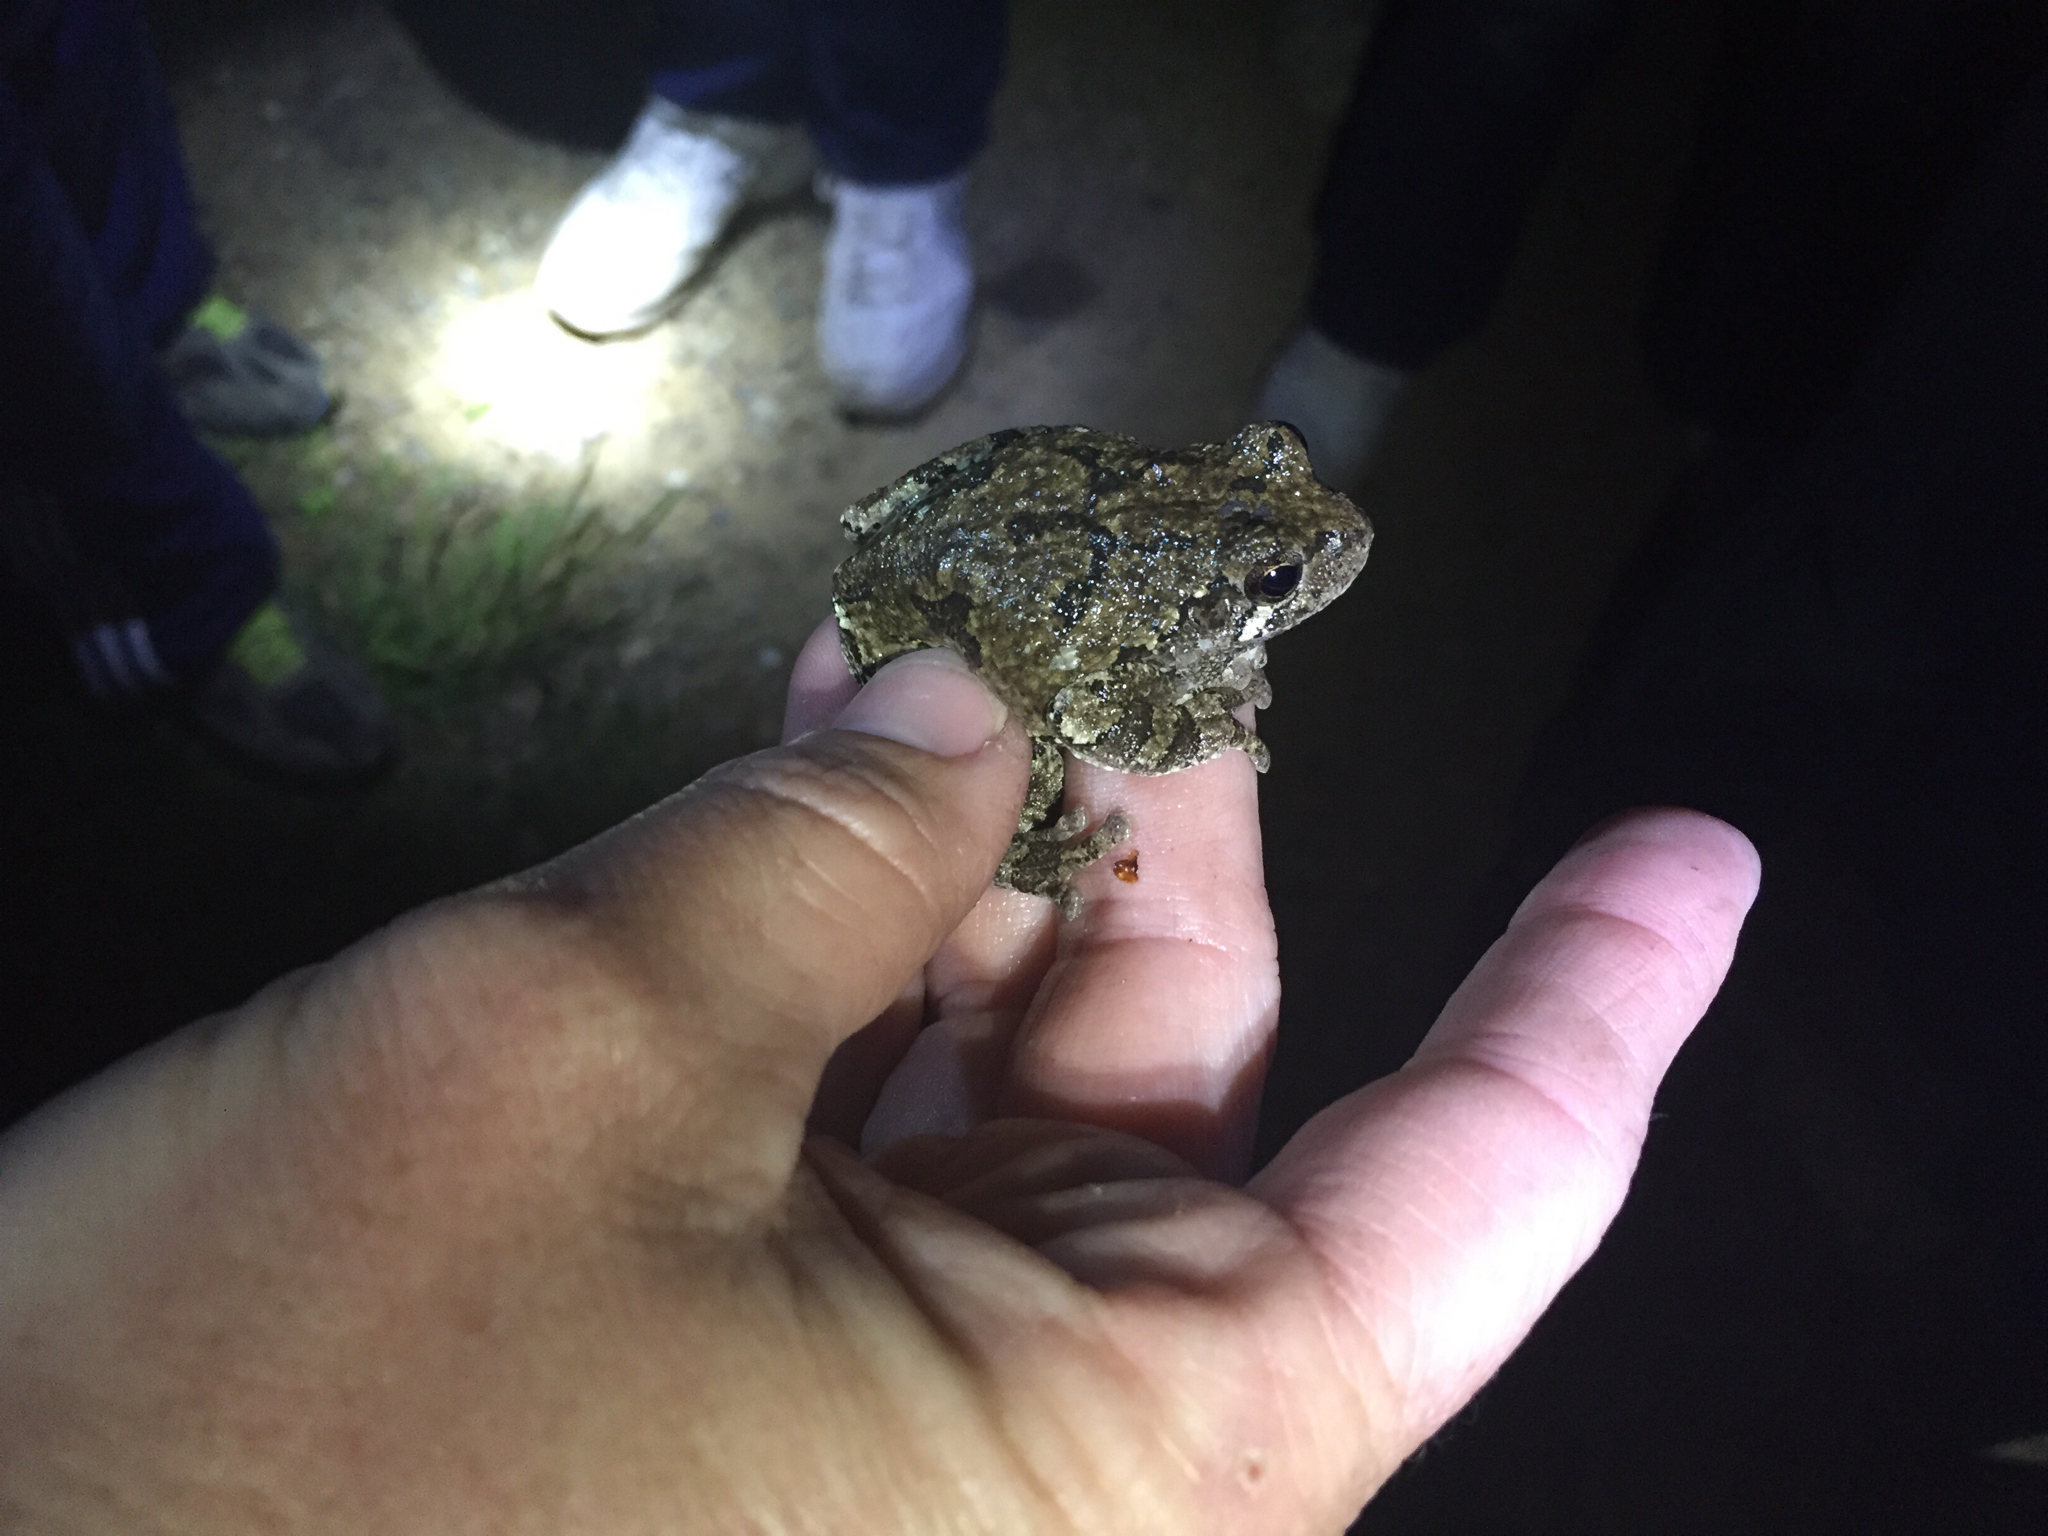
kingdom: Animalia
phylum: Chordata
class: Amphibia
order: Anura
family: Hylidae
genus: Dryophytes
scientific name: Dryophytes versicolor
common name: Gray treefrog
